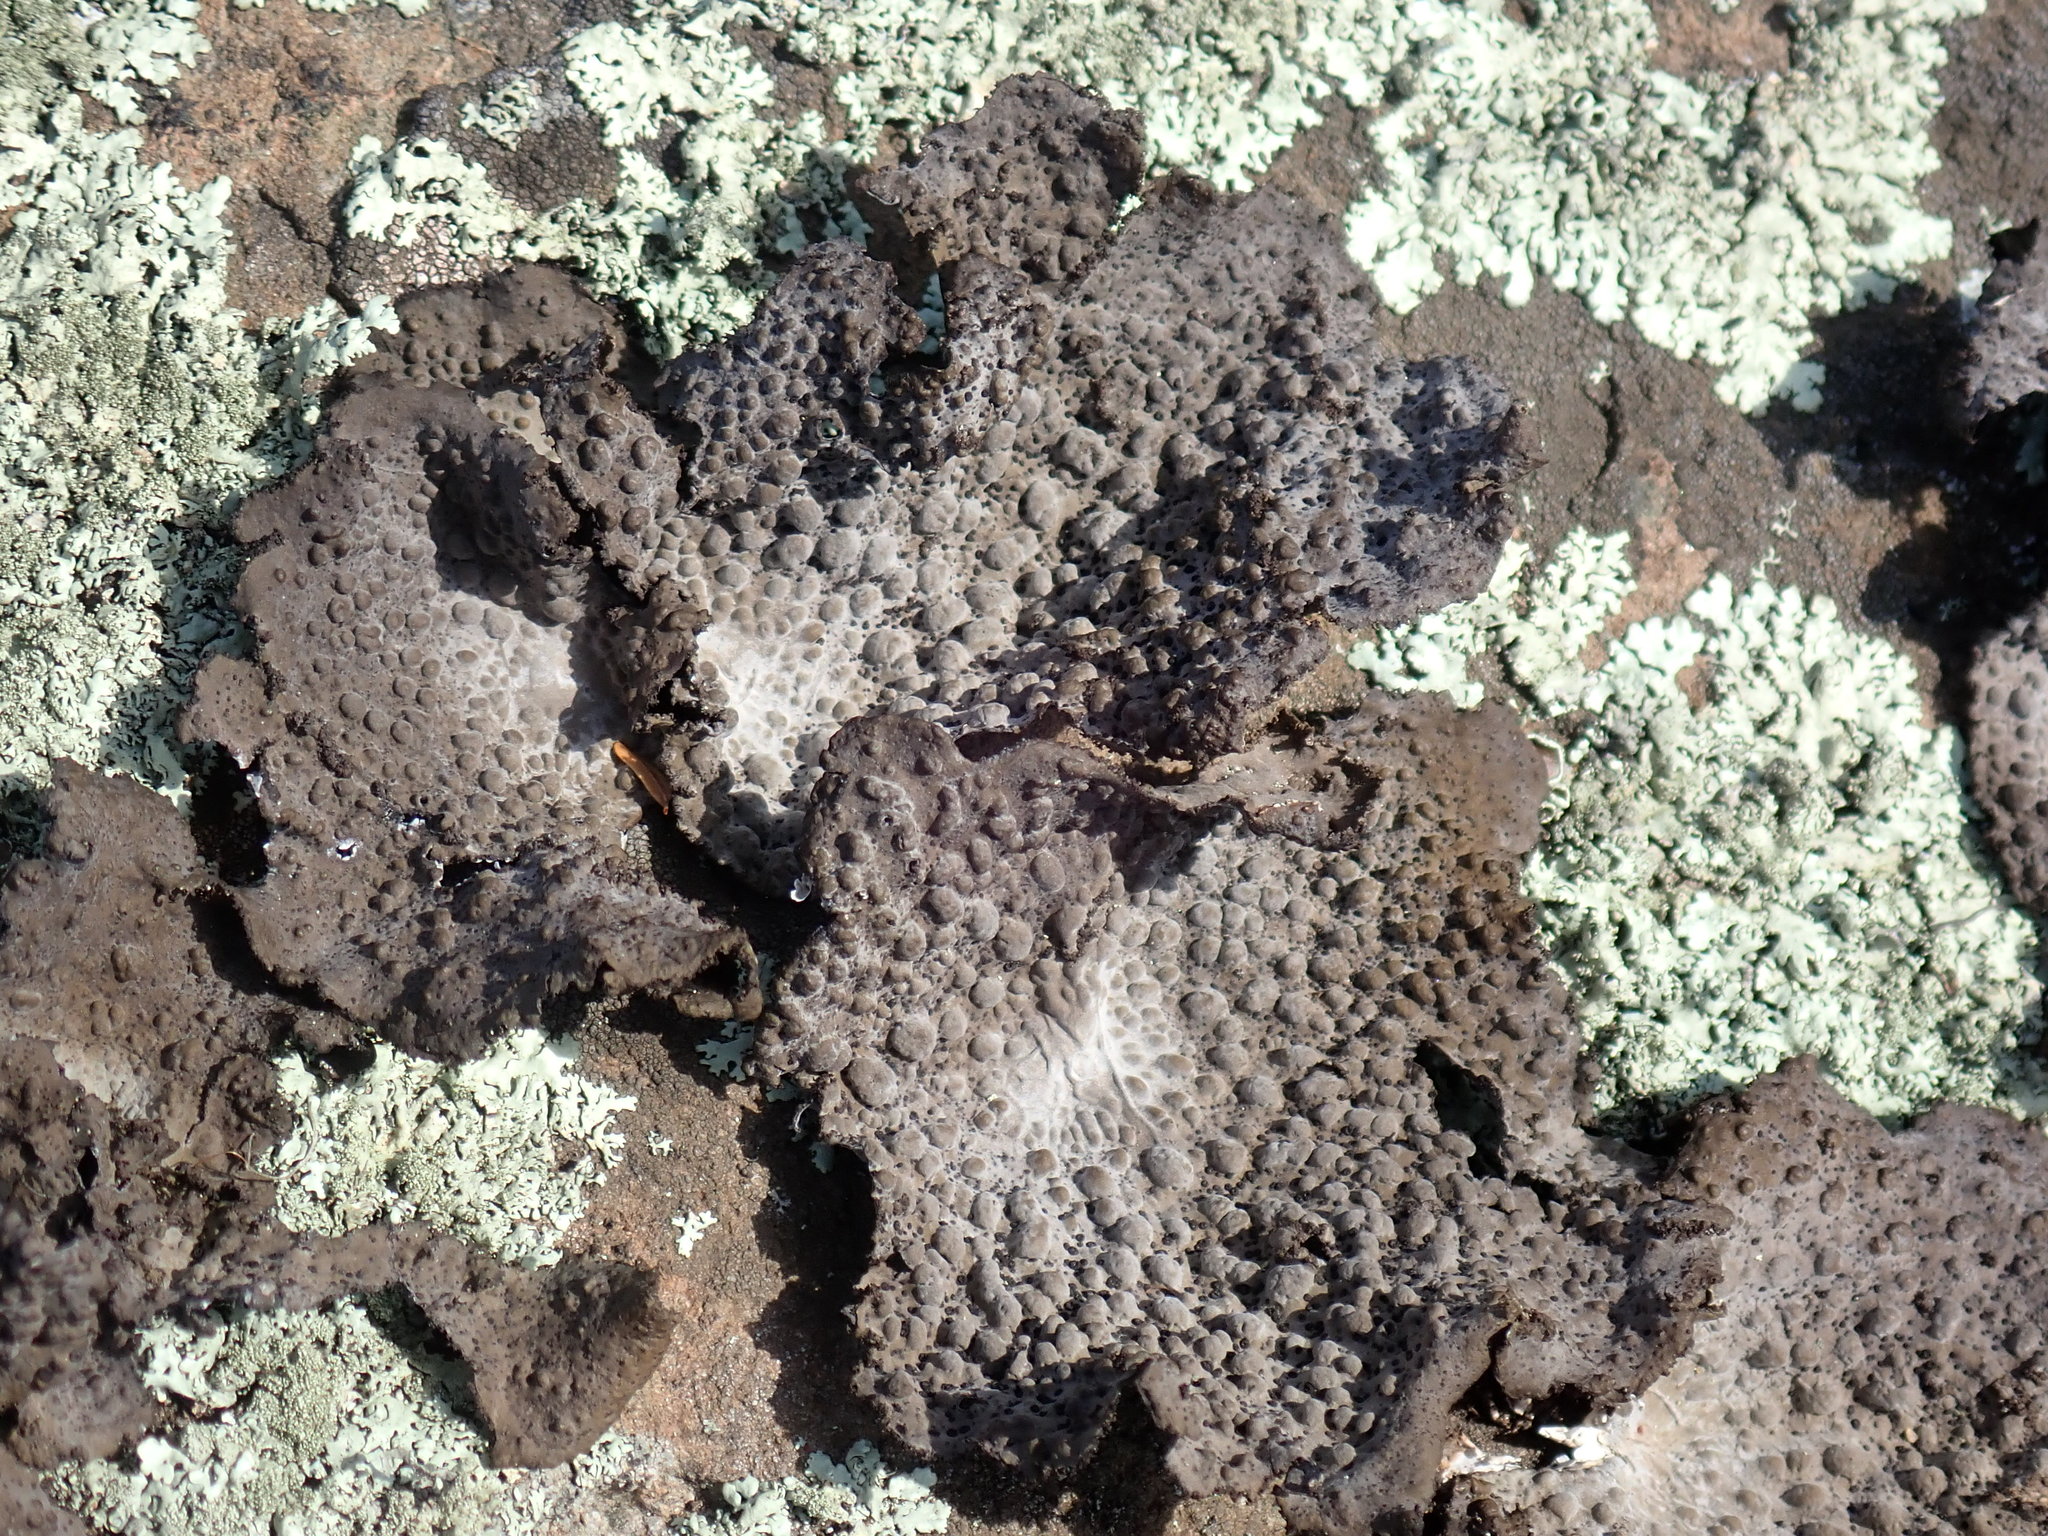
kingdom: Fungi
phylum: Ascomycota
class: Lecanoromycetes
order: Umbilicariales
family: Umbilicariaceae
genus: Lasallia
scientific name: Lasallia papulosa
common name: Common toadskin lichen
